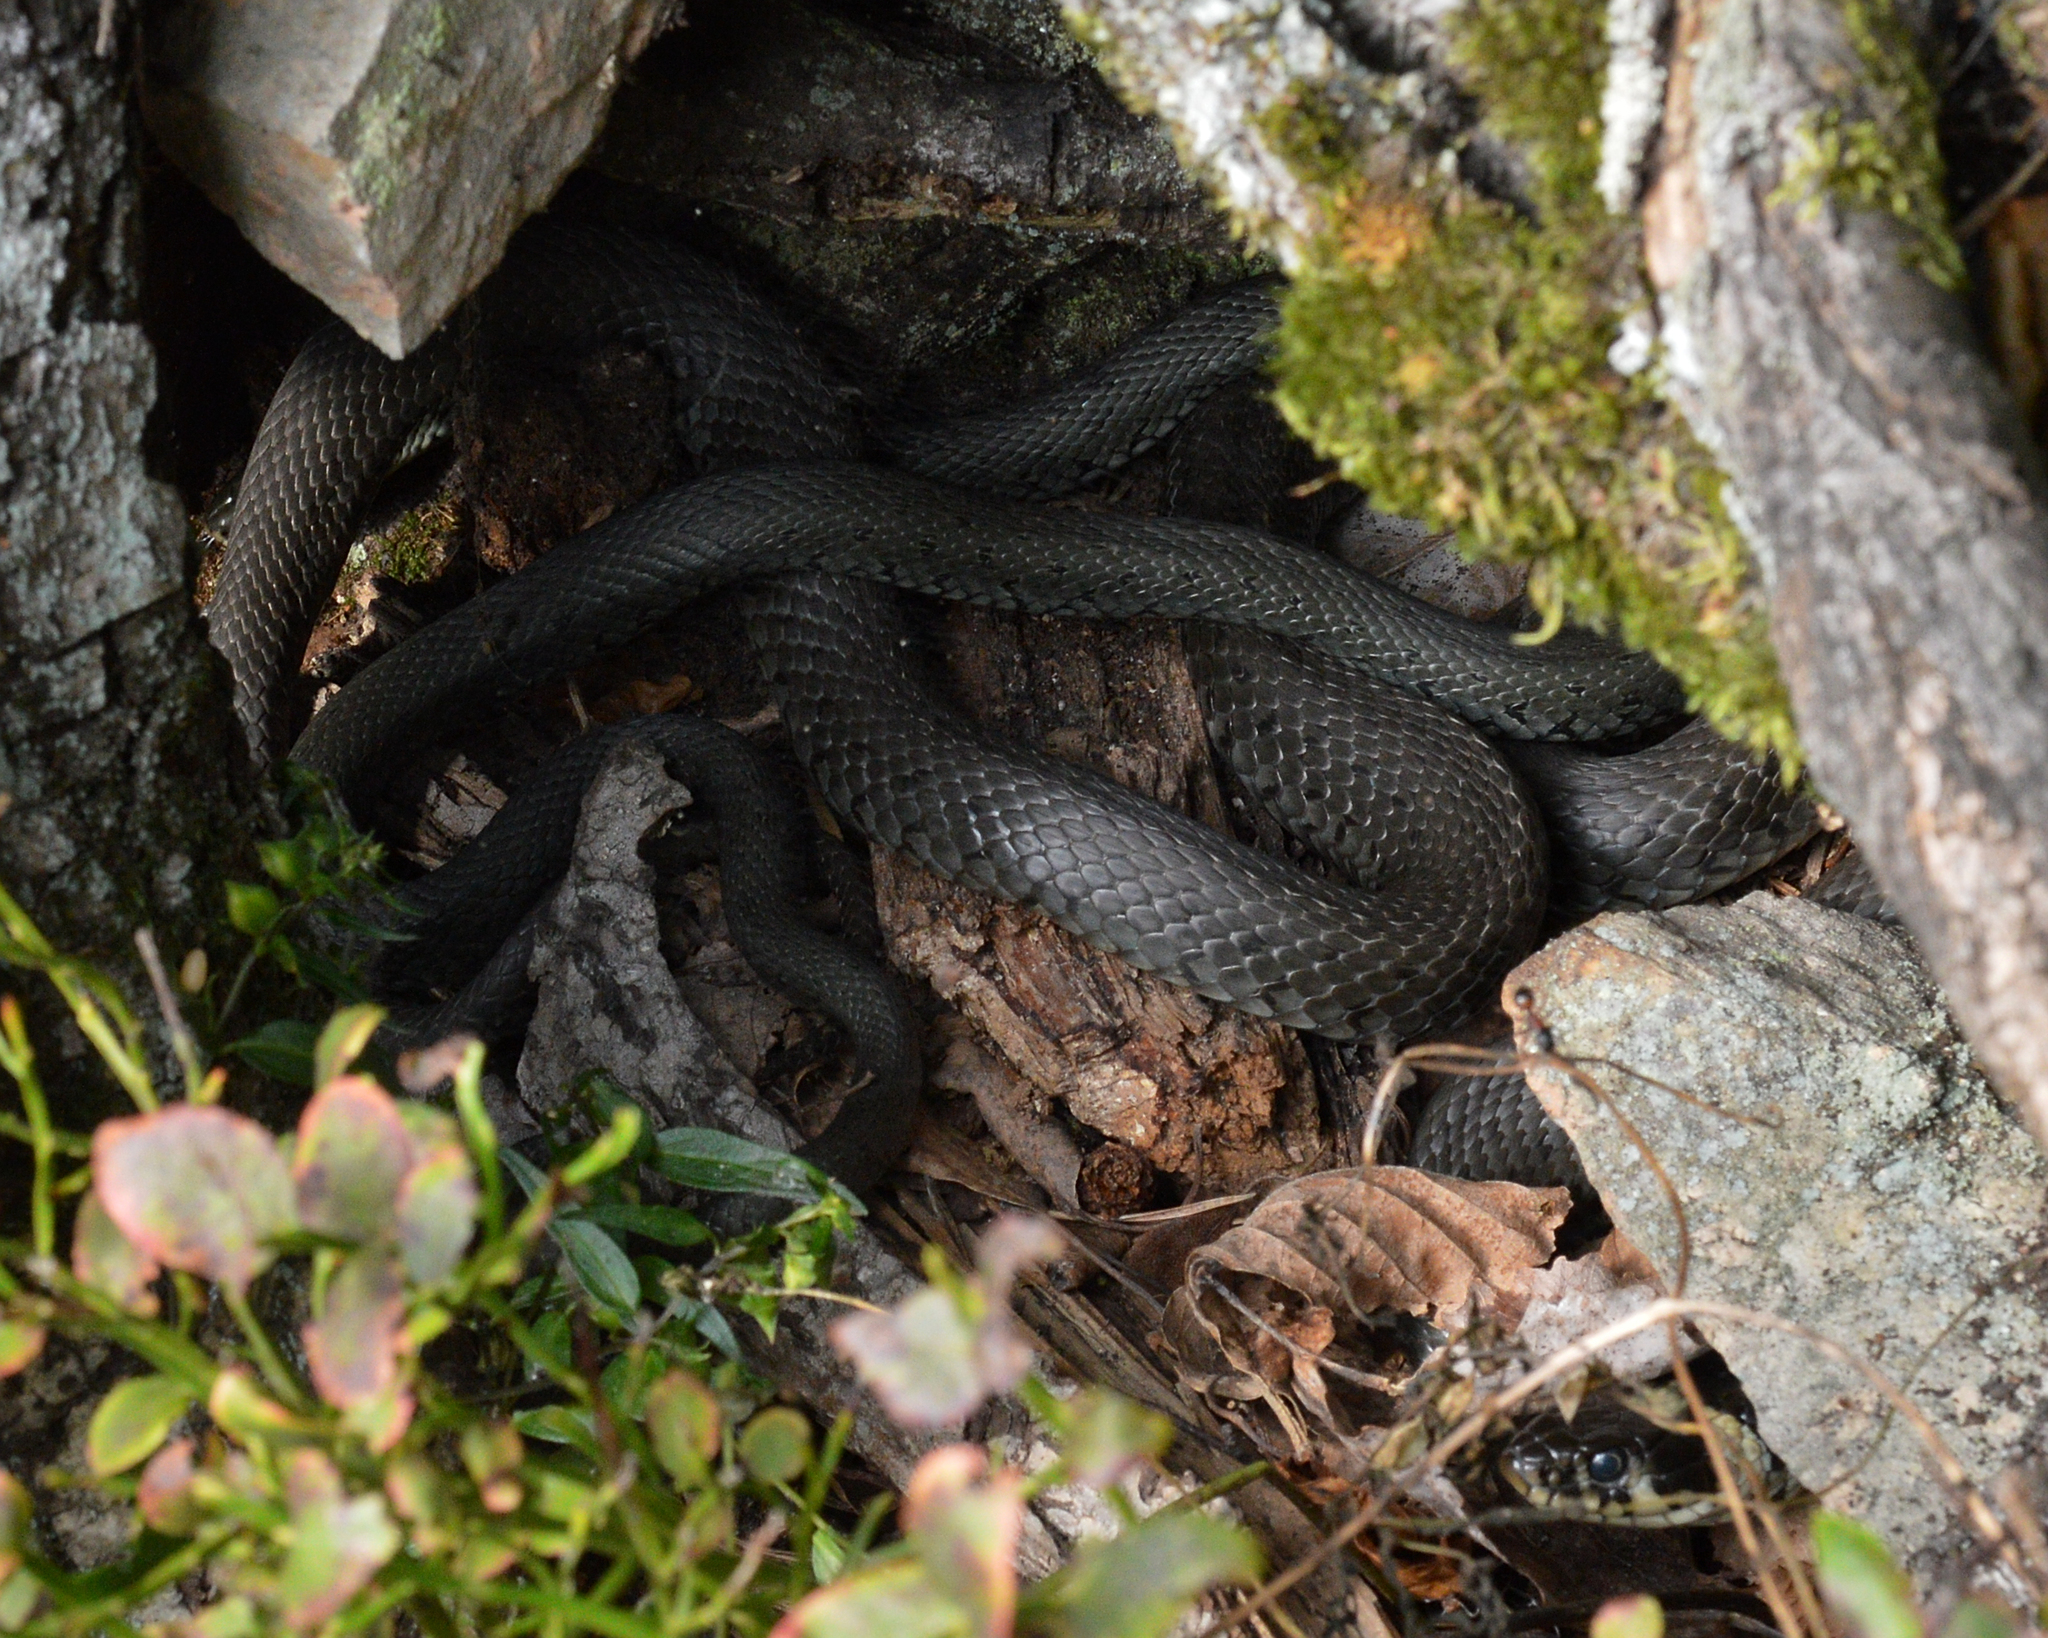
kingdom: Animalia
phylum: Chordata
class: Squamata
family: Colubridae
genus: Natrix
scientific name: Natrix natrix
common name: Grass snake
